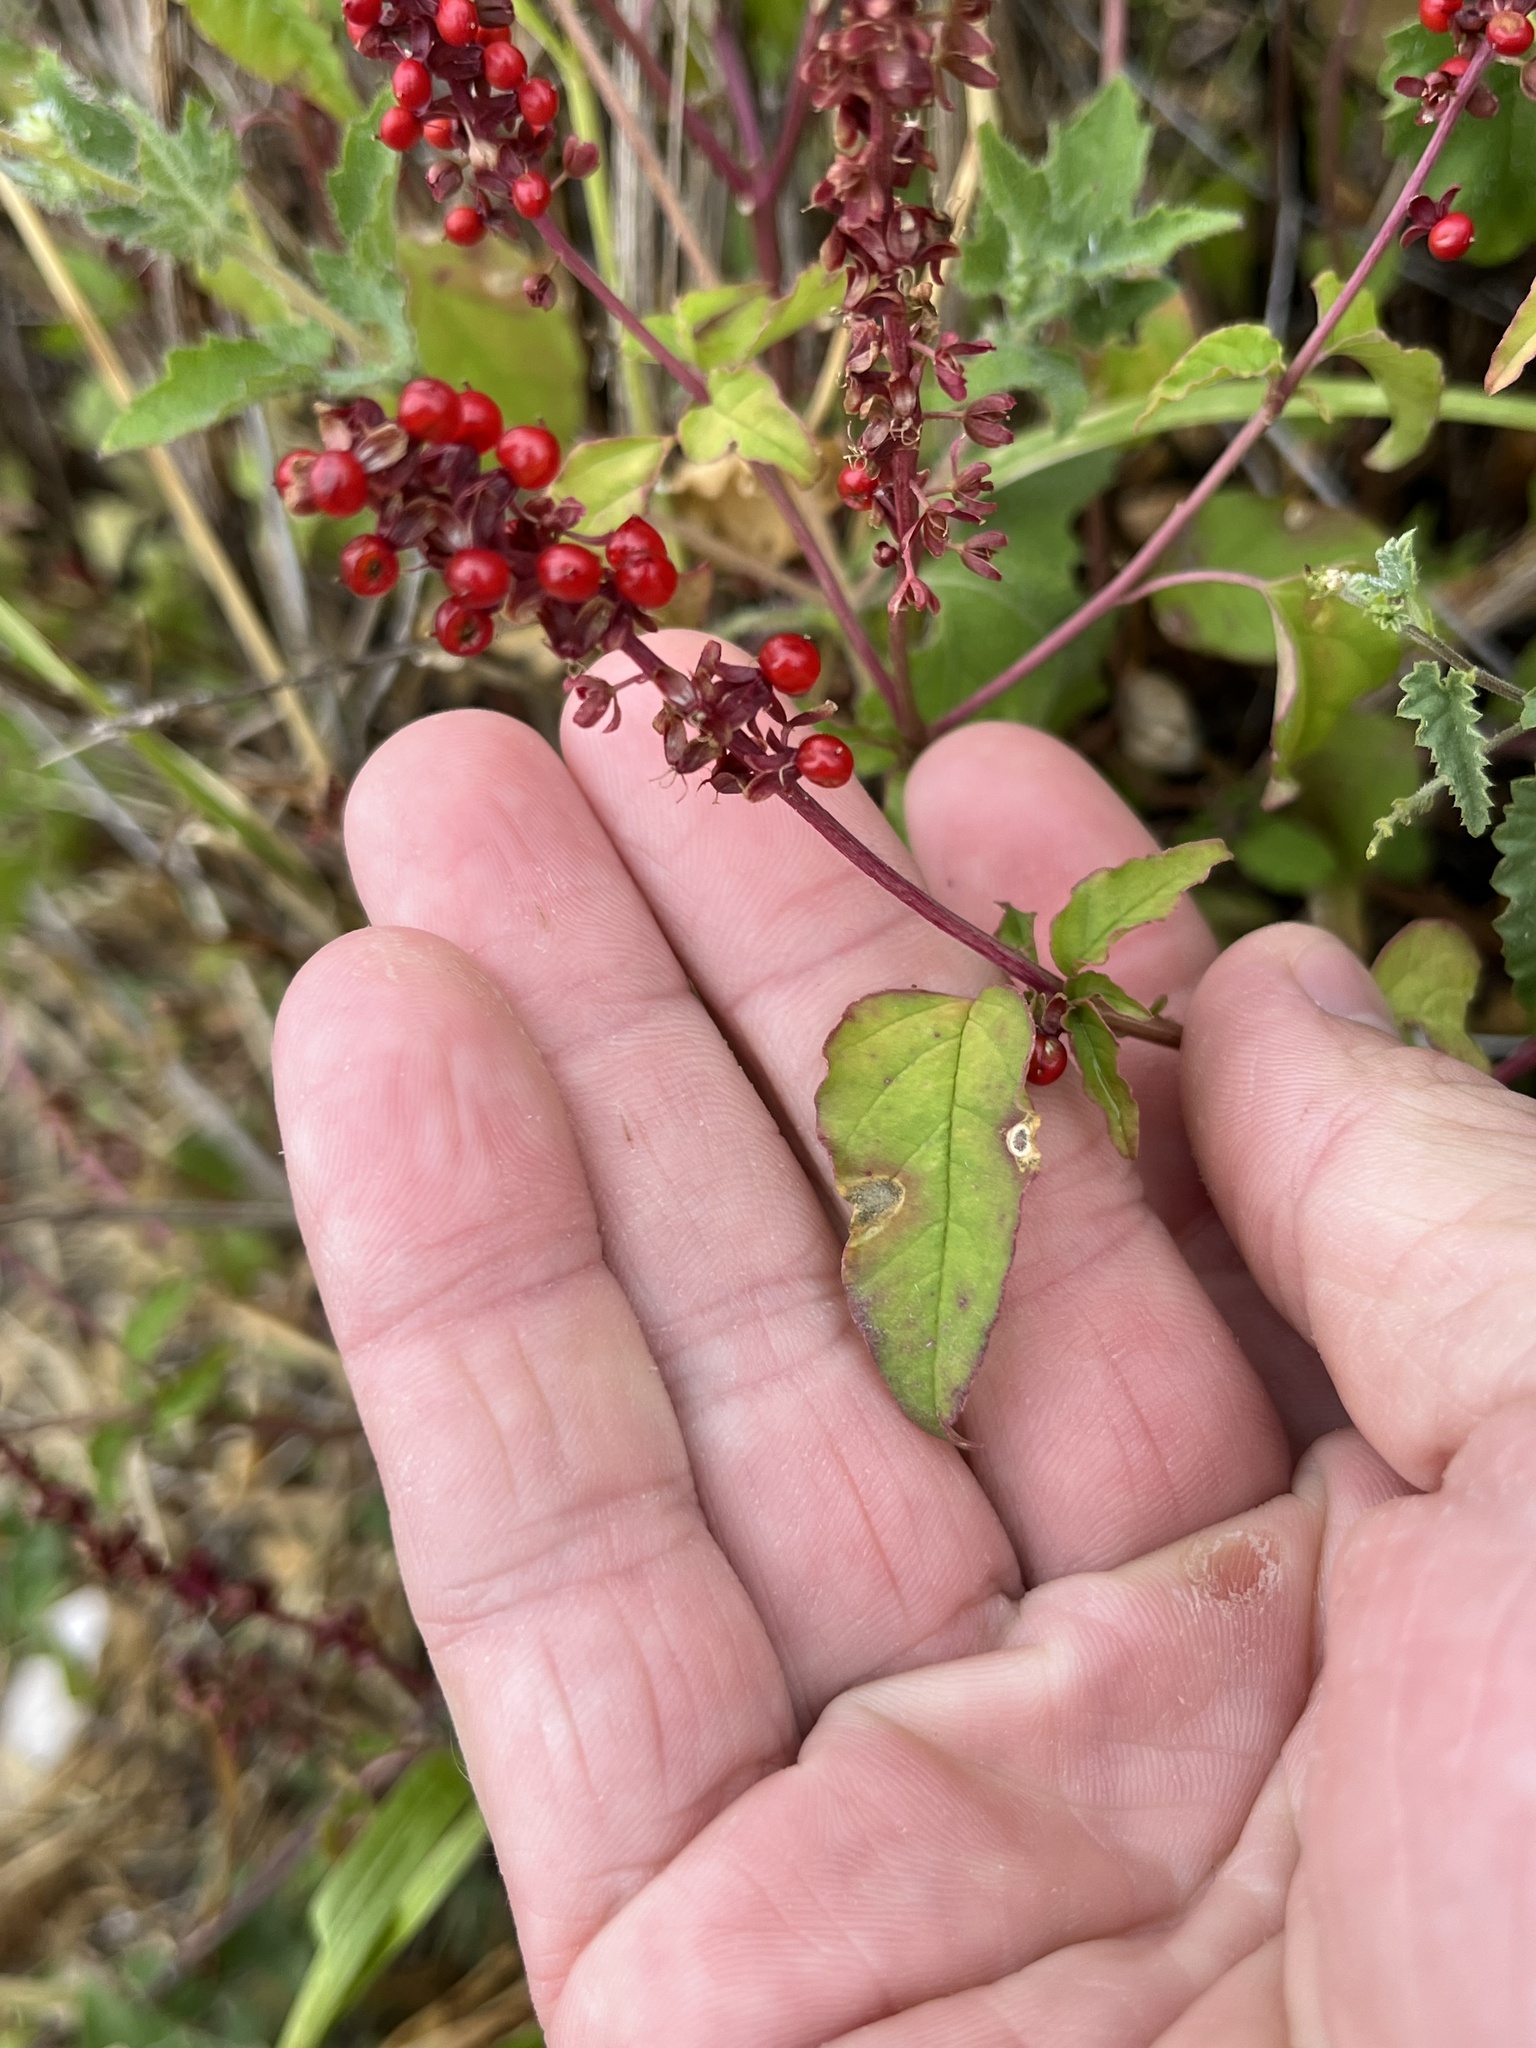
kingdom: Plantae
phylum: Tracheophyta
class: Magnoliopsida
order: Caryophyllales
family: Phytolaccaceae
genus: Rivina
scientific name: Rivina humilis
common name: Rougeplant
